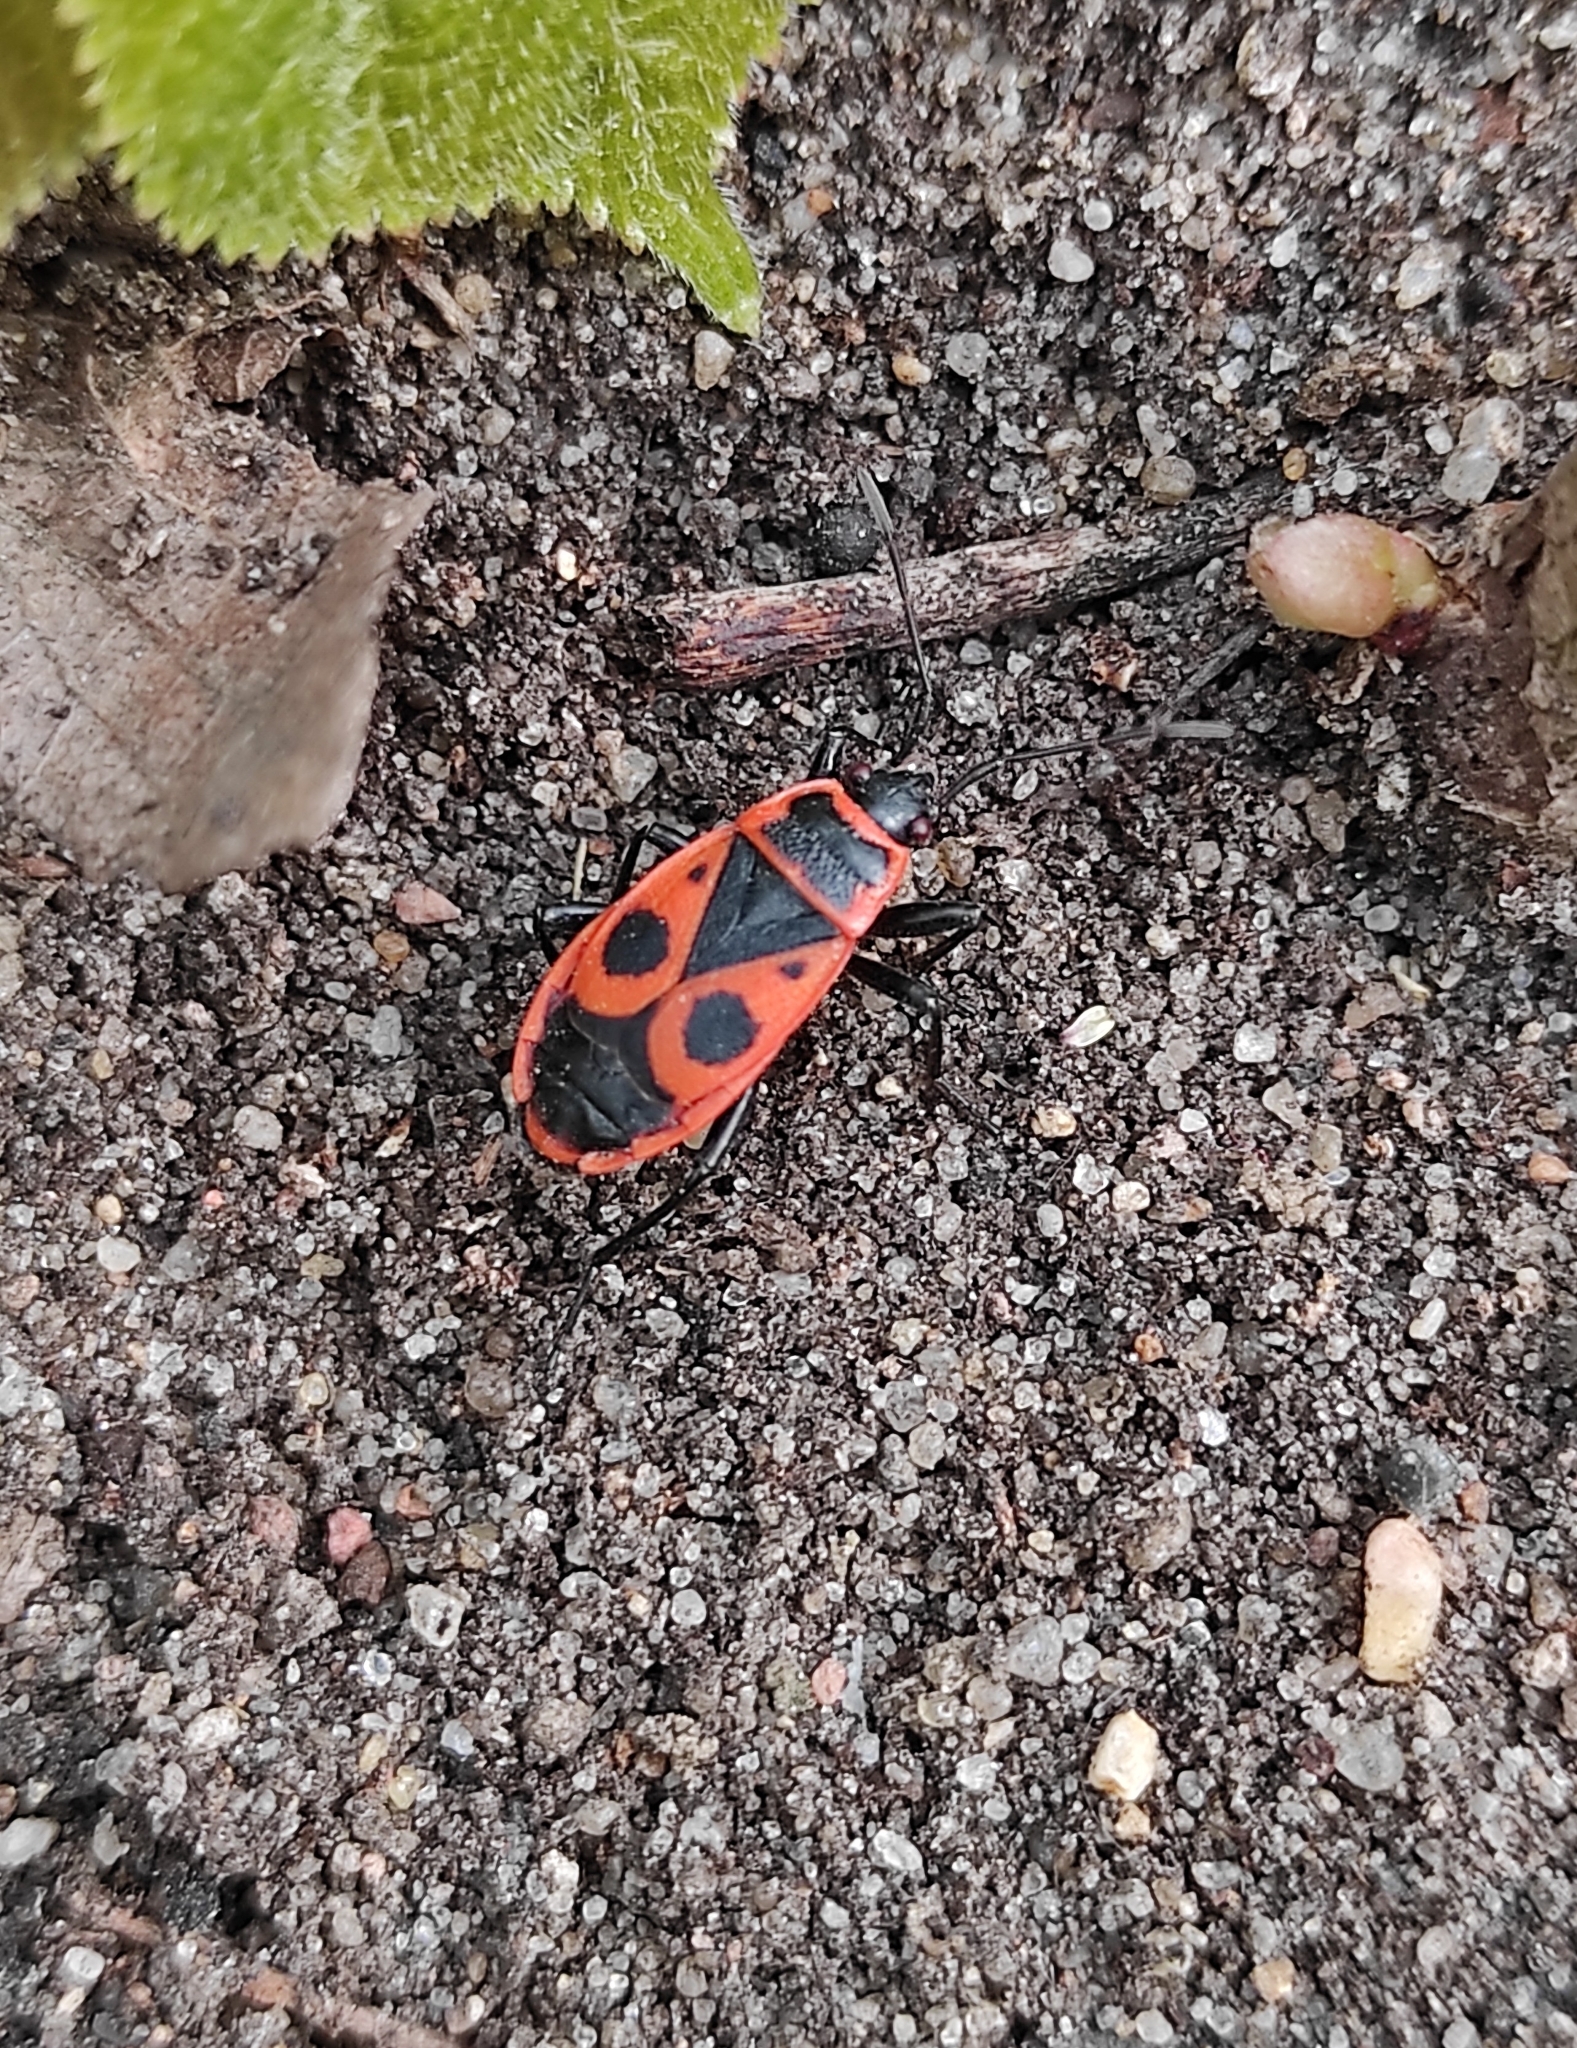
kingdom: Animalia
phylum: Arthropoda
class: Insecta
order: Hemiptera
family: Pyrrhocoridae
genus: Pyrrhocoris
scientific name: Pyrrhocoris apterus
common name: Firebug
